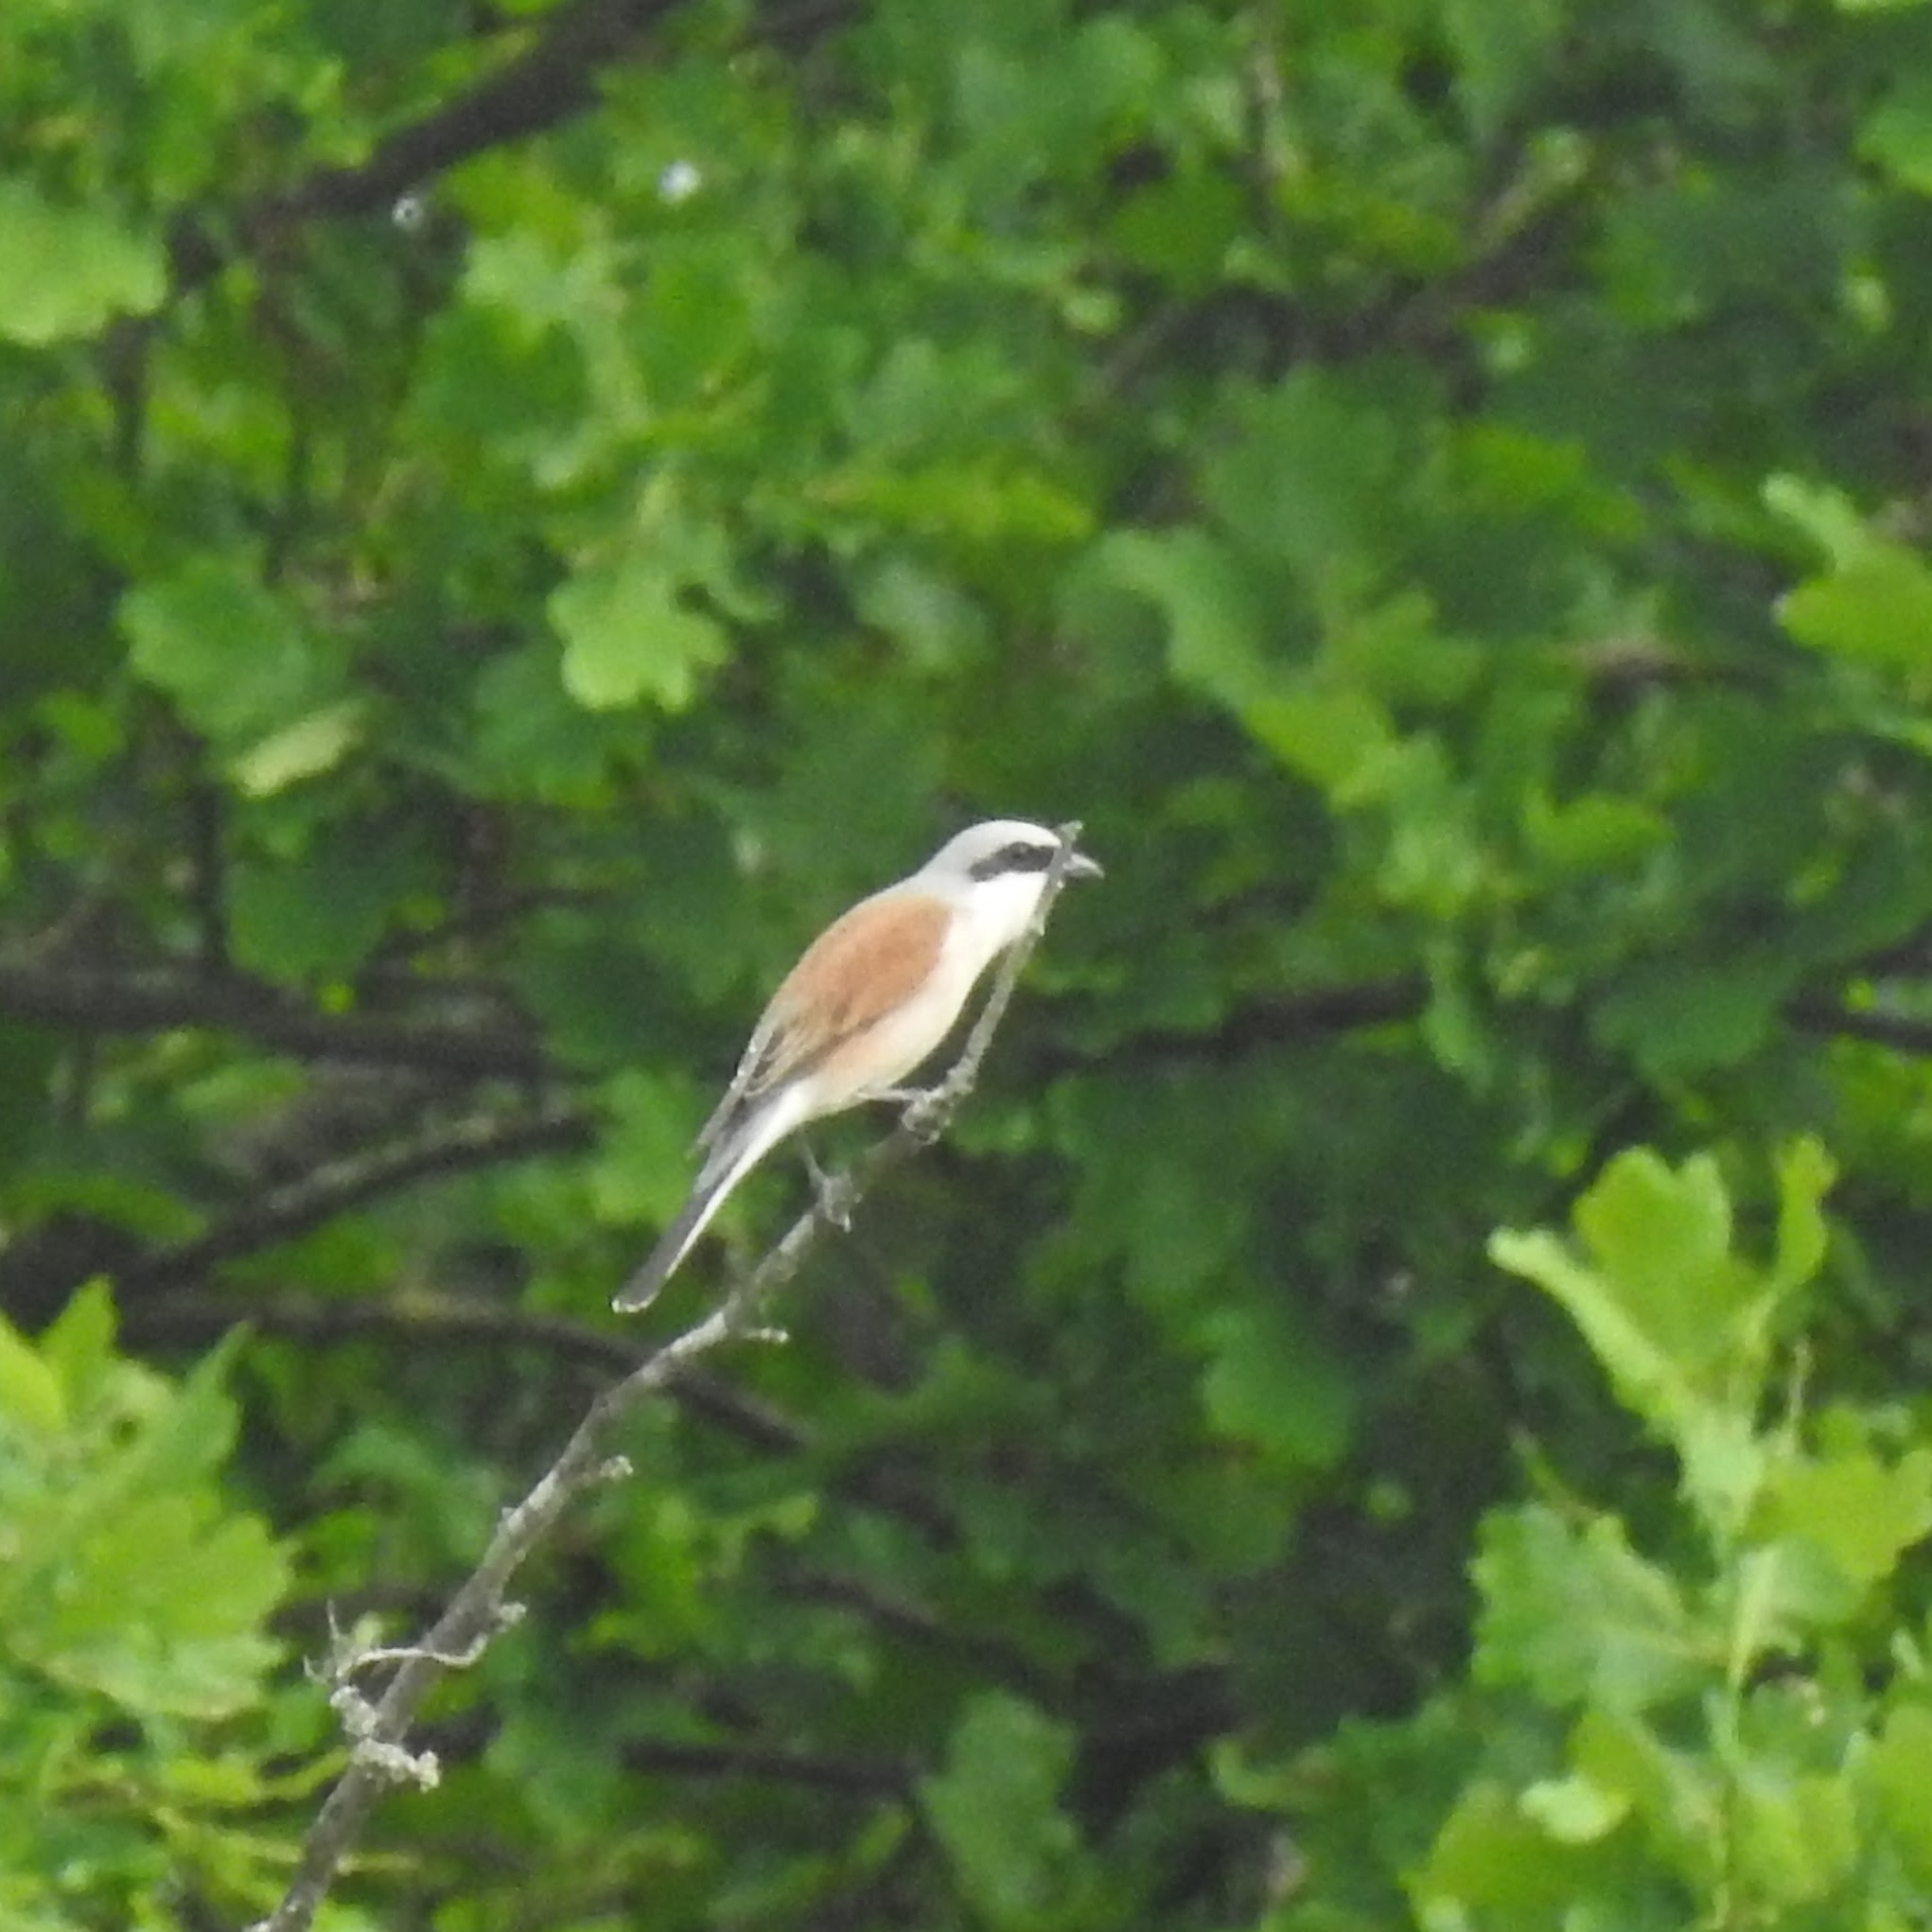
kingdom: Animalia
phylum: Chordata
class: Aves
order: Passeriformes
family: Laniidae
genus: Lanius
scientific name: Lanius collurio
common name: Red-backed shrike
